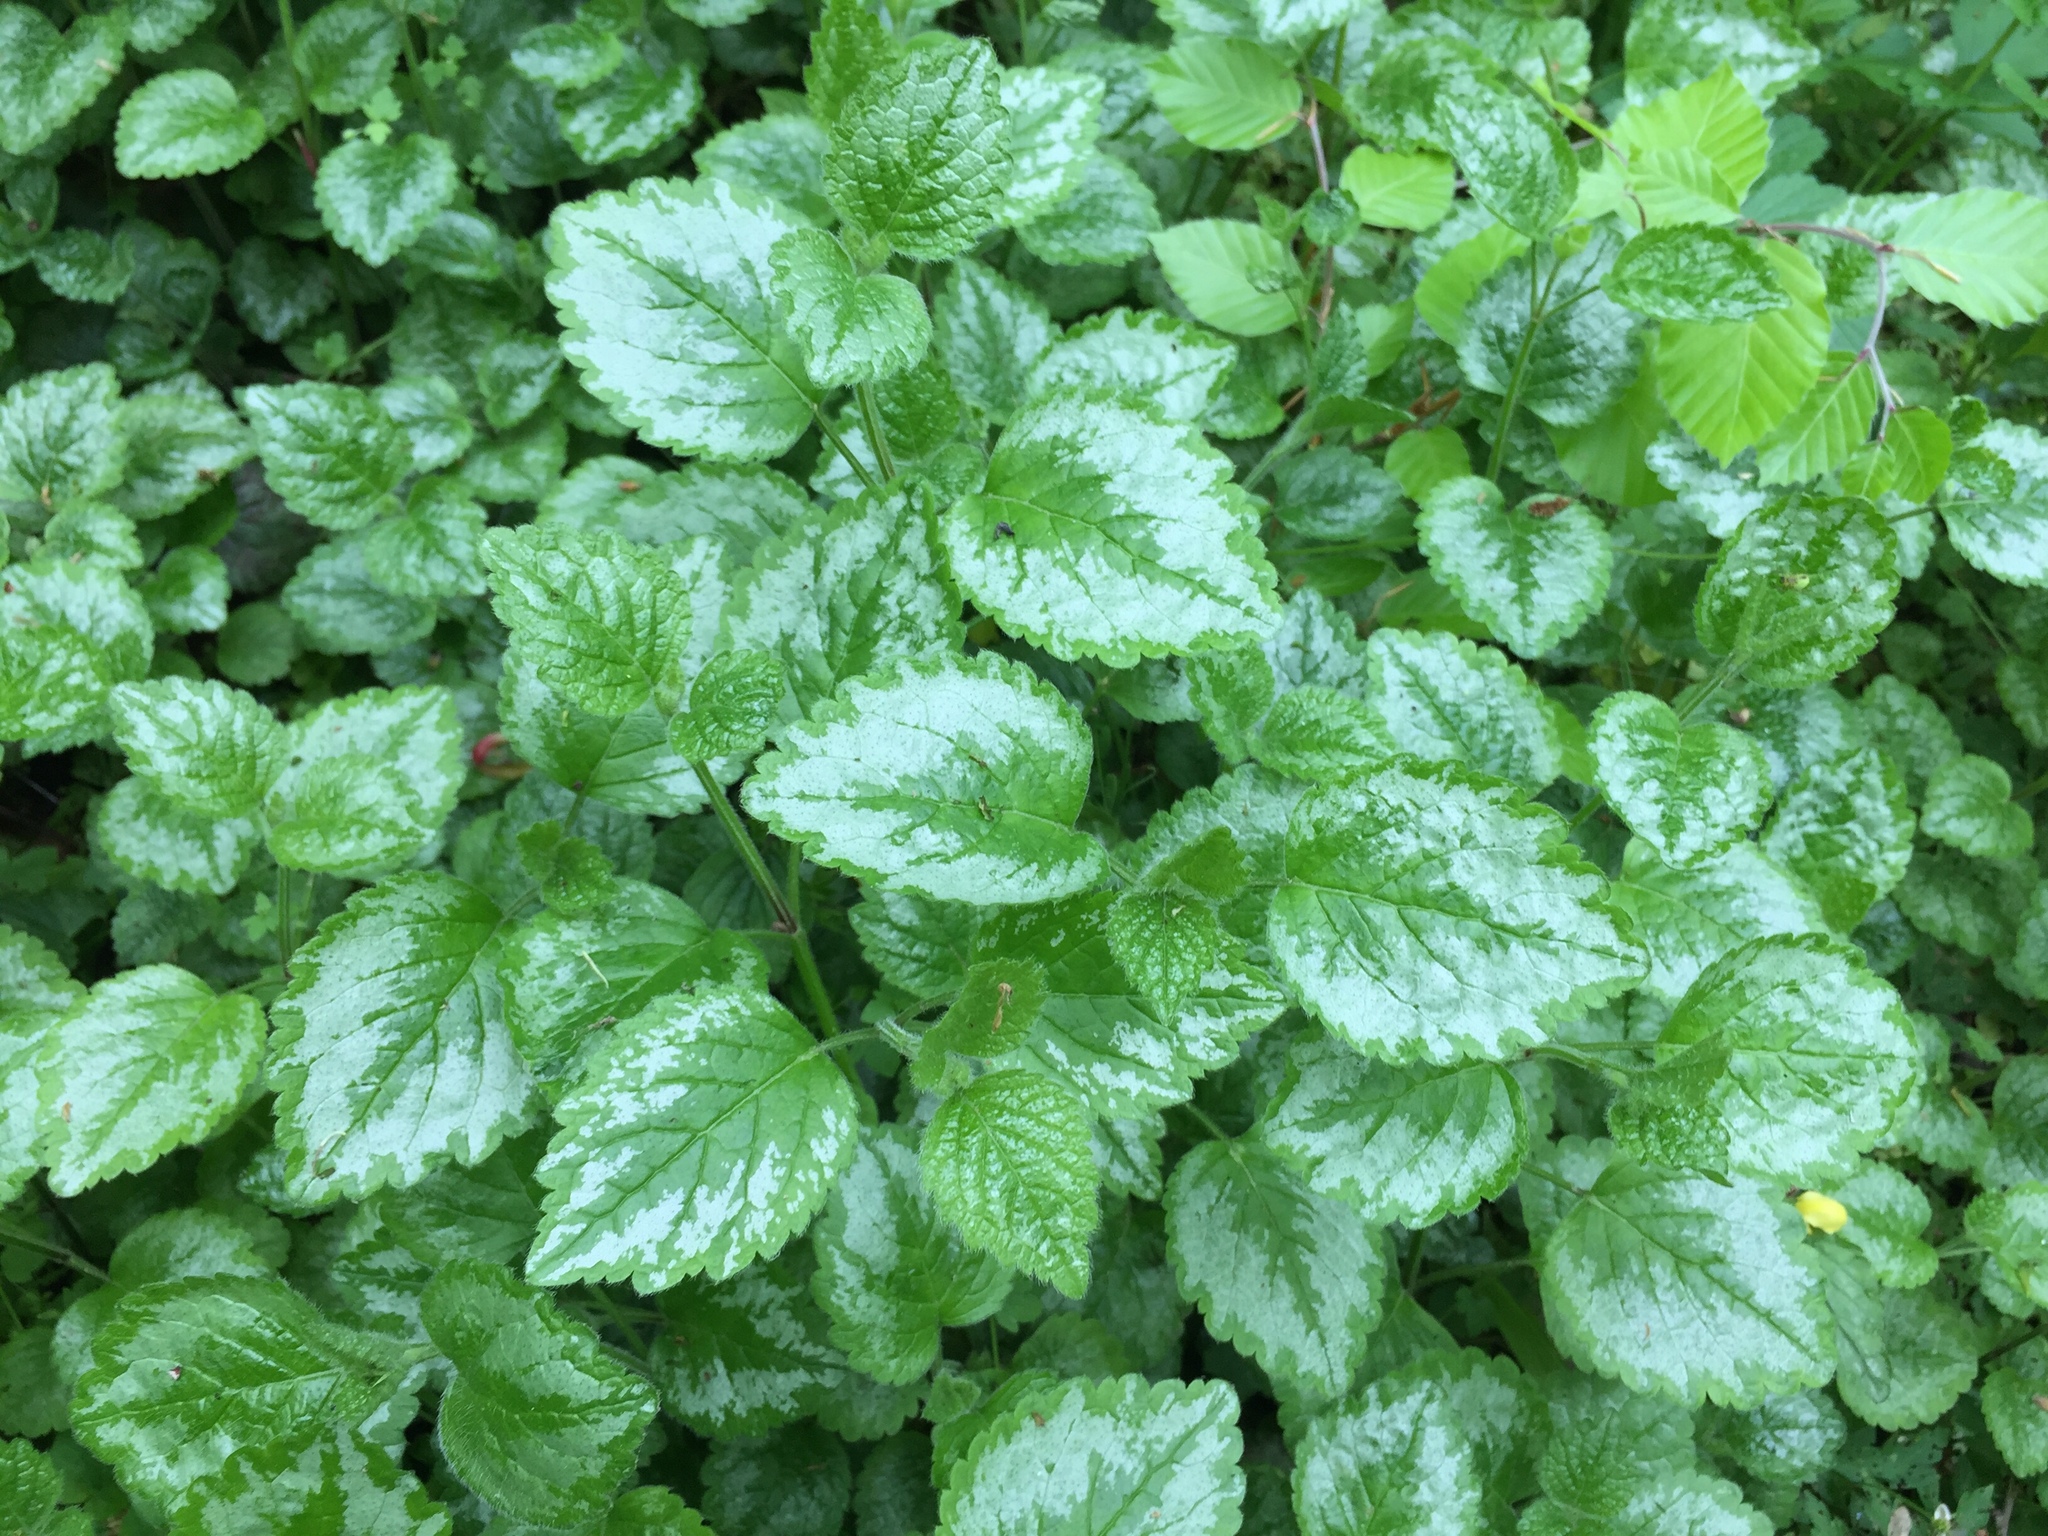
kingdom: Plantae
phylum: Tracheophyta
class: Magnoliopsida
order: Lamiales
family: Lamiaceae
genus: Lamium
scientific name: Lamium galeobdolon
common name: Yellow archangel
